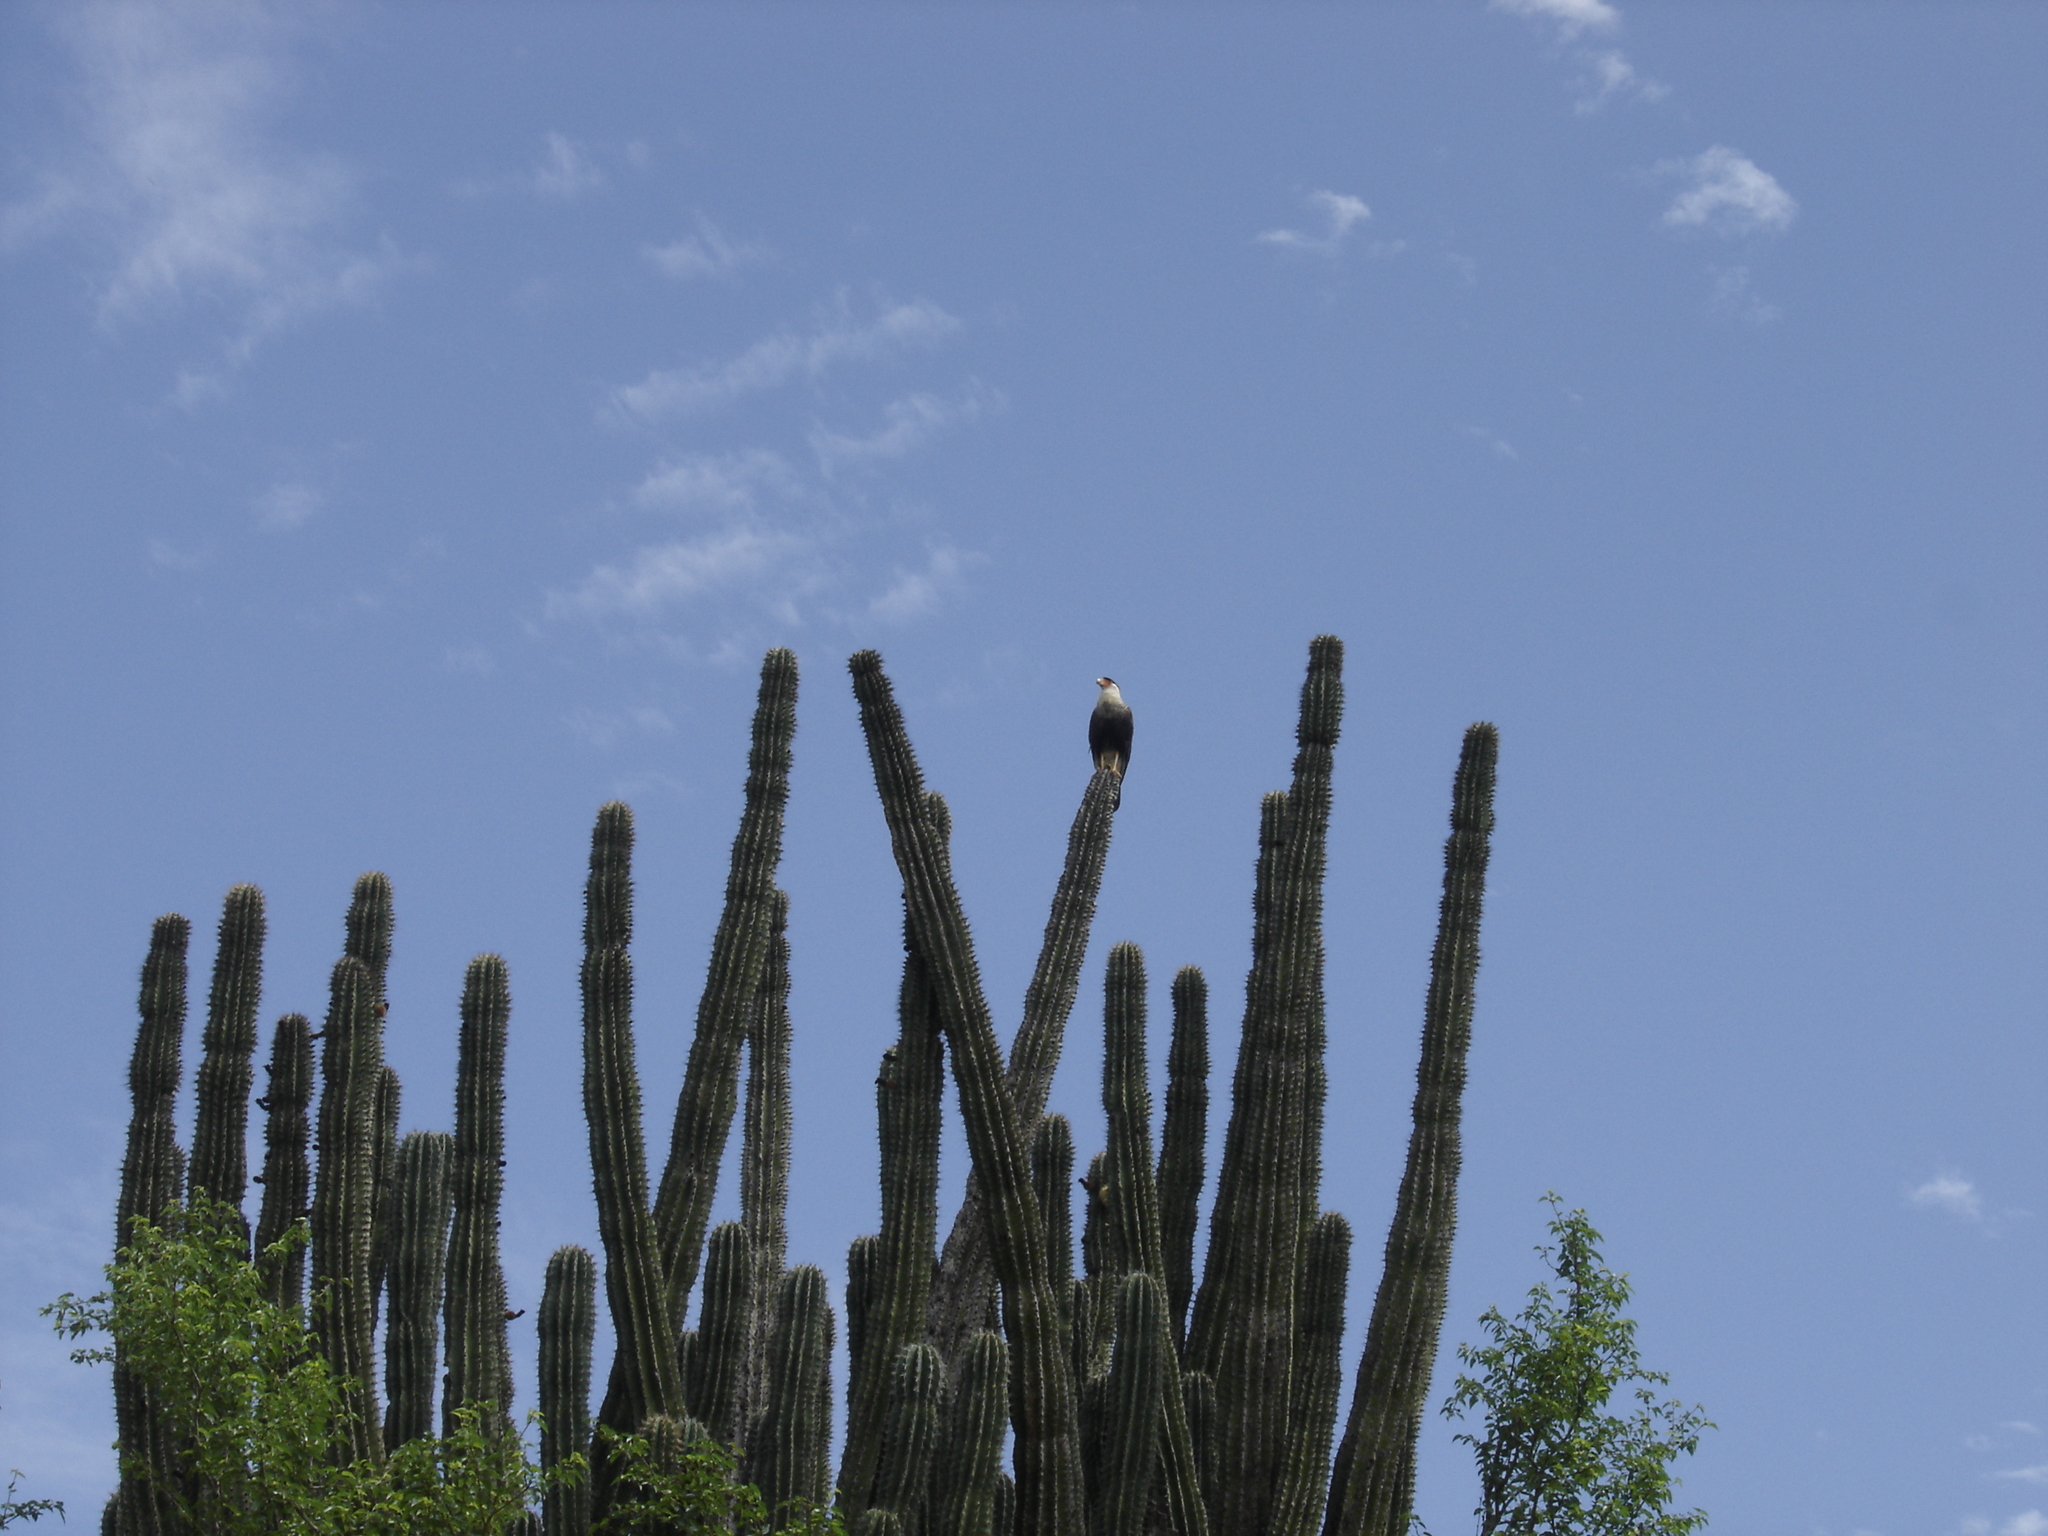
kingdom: Animalia
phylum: Chordata
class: Aves
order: Falconiformes
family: Falconidae
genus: Caracara
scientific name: Caracara plancus
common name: Southern caracara
